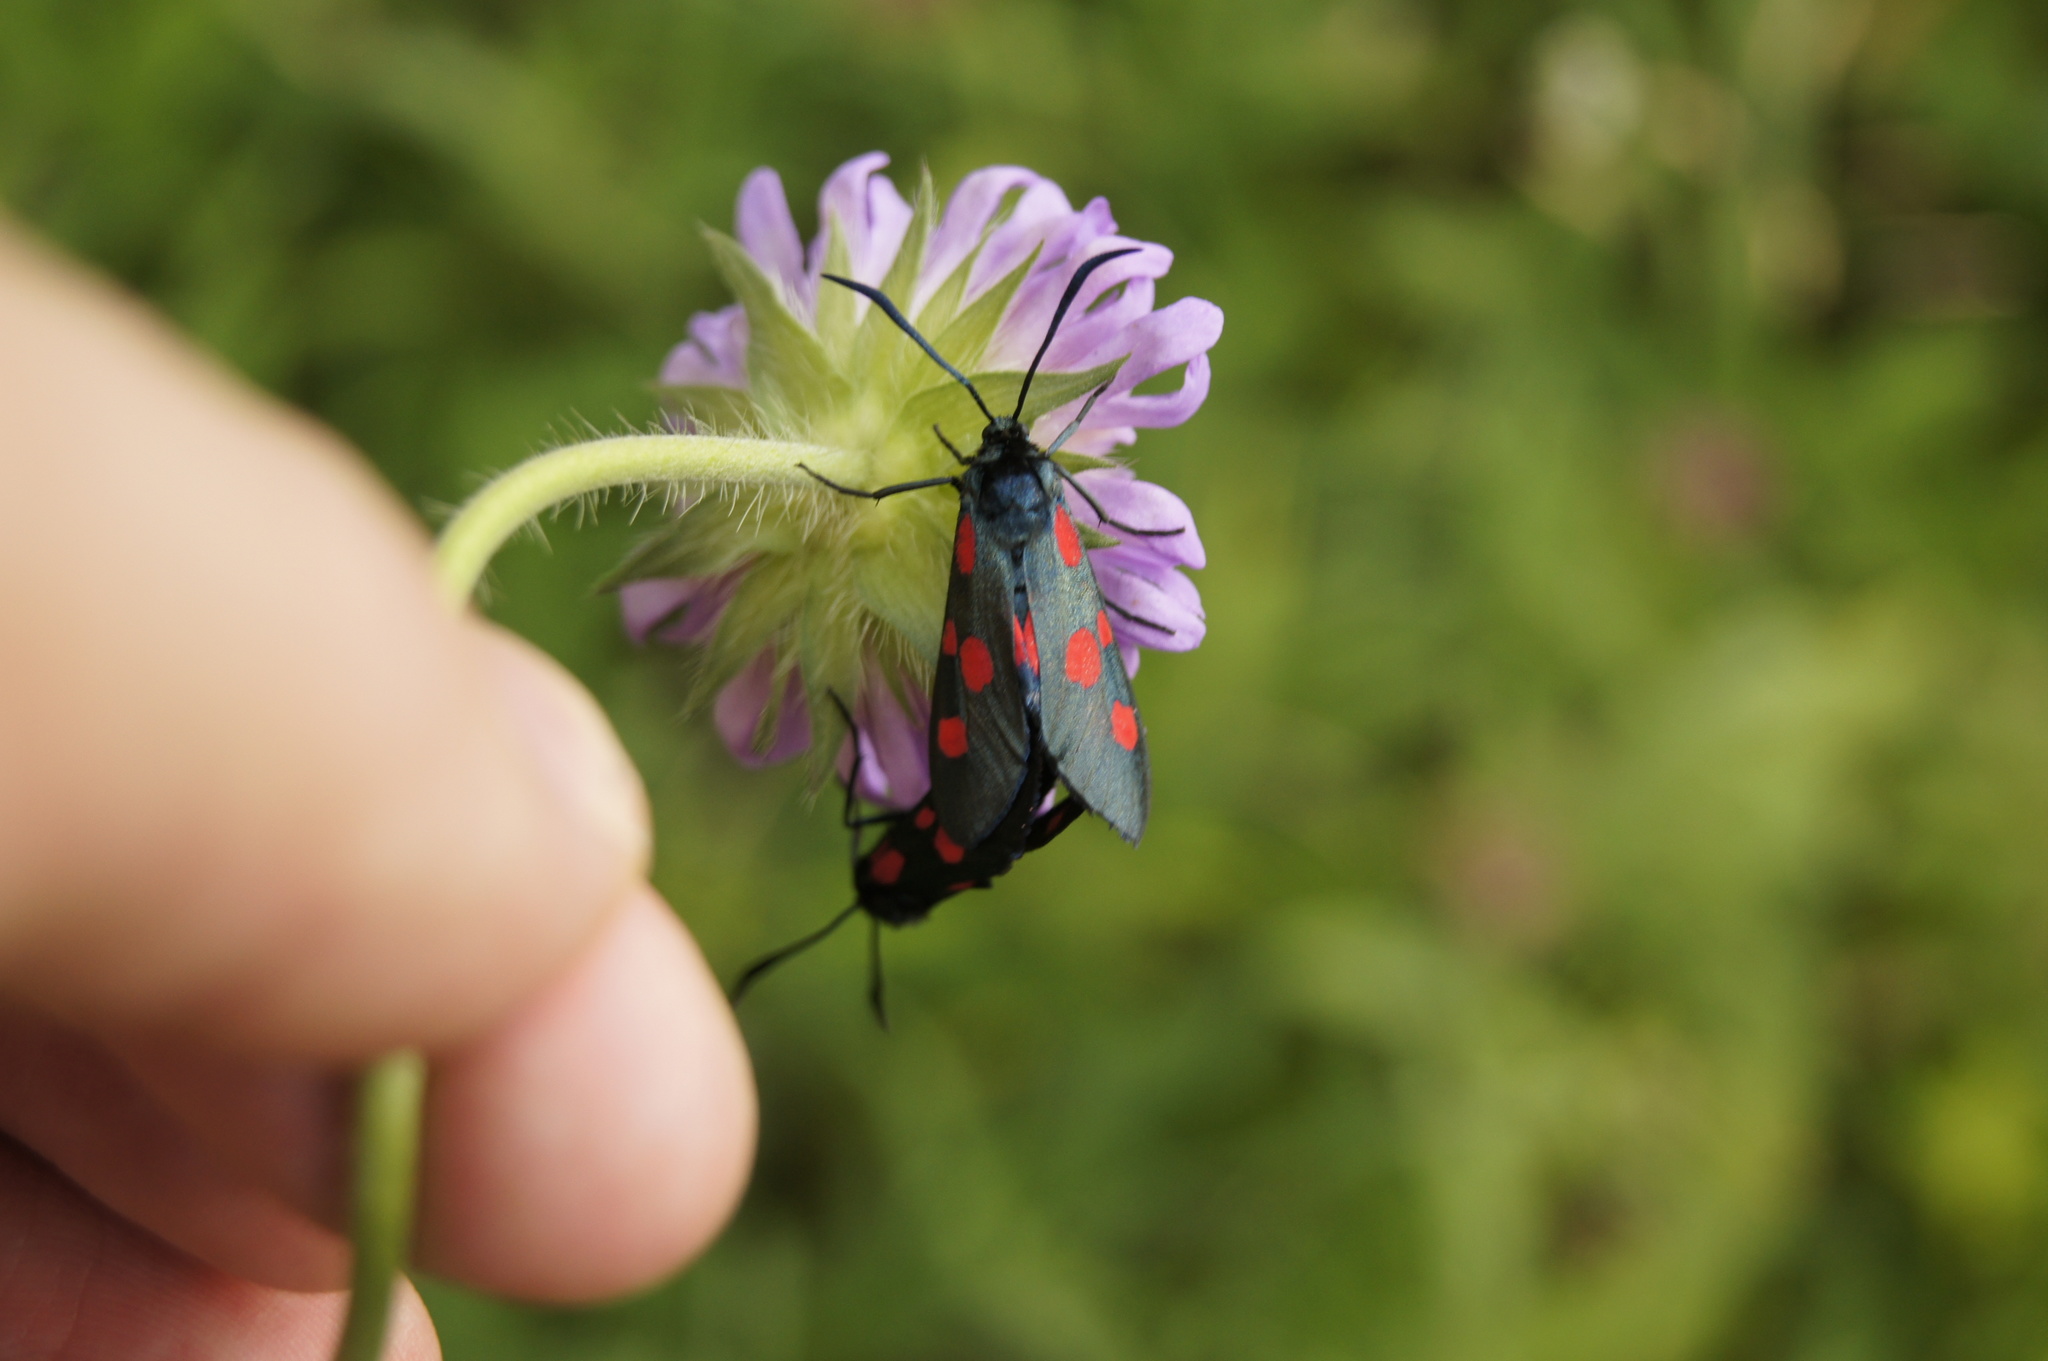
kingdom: Animalia
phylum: Arthropoda
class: Insecta
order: Lepidoptera
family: Zygaenidae
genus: Zygaena
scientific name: Zygaena lonicerae
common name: Narrow-bordered five-spot burnet
